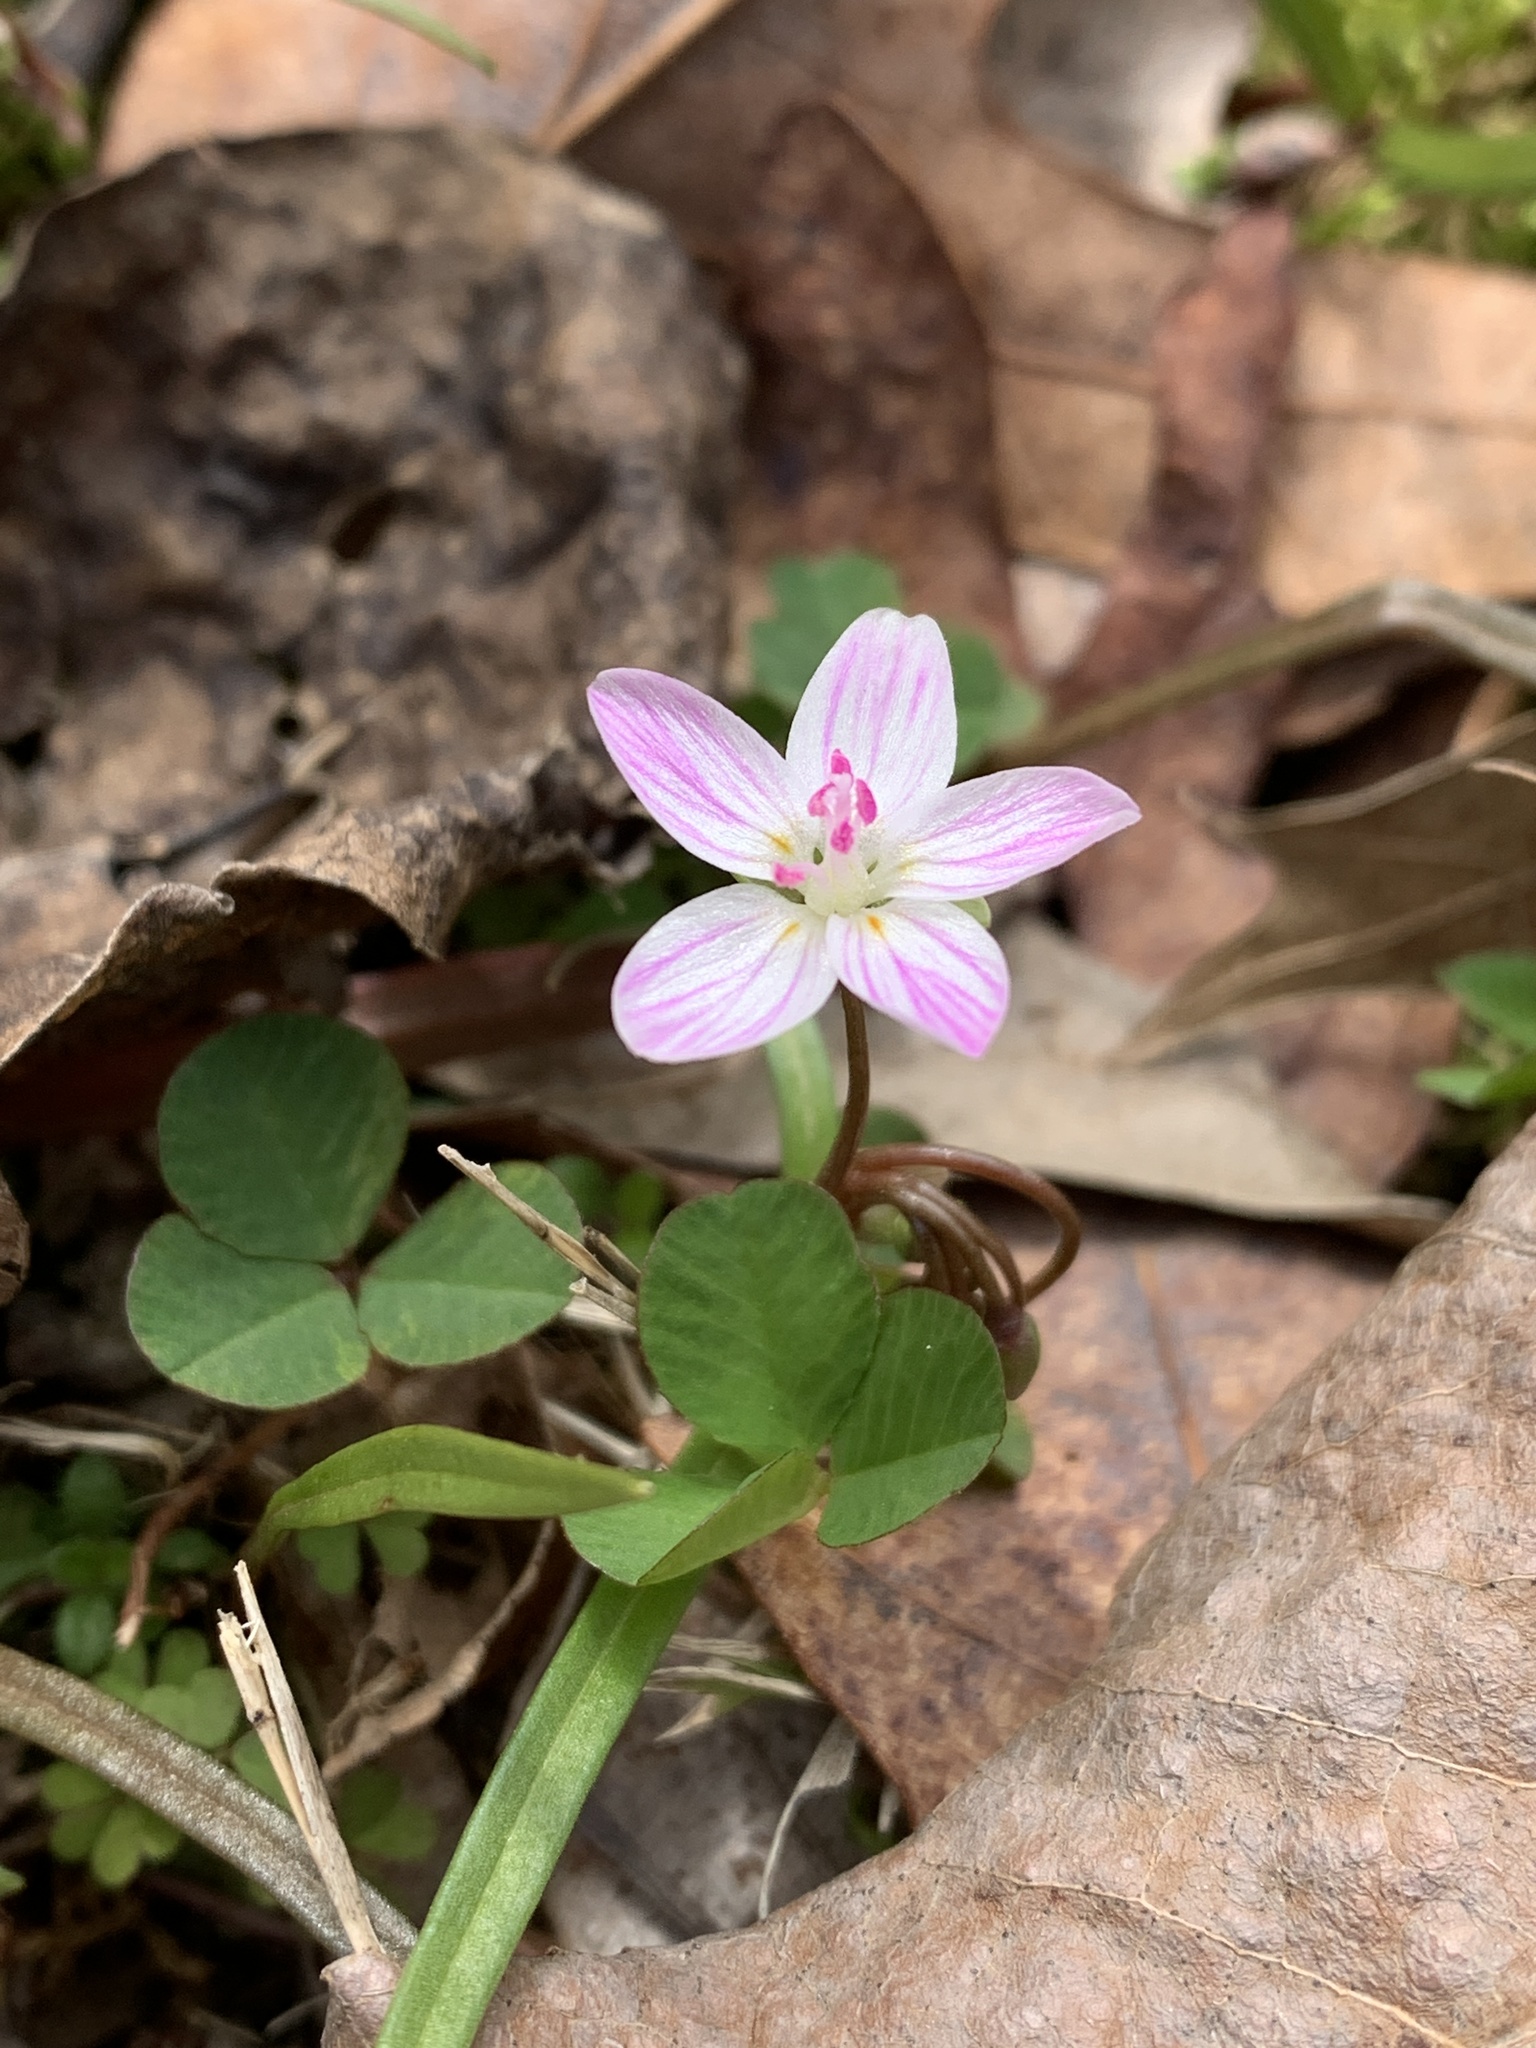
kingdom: Plantae
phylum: Tracheophyta
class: Magnoliopsida
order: Caryophyllales
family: Montiaceae
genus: Claytonia
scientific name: Claytonia virginica
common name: Virginia springbeauty
